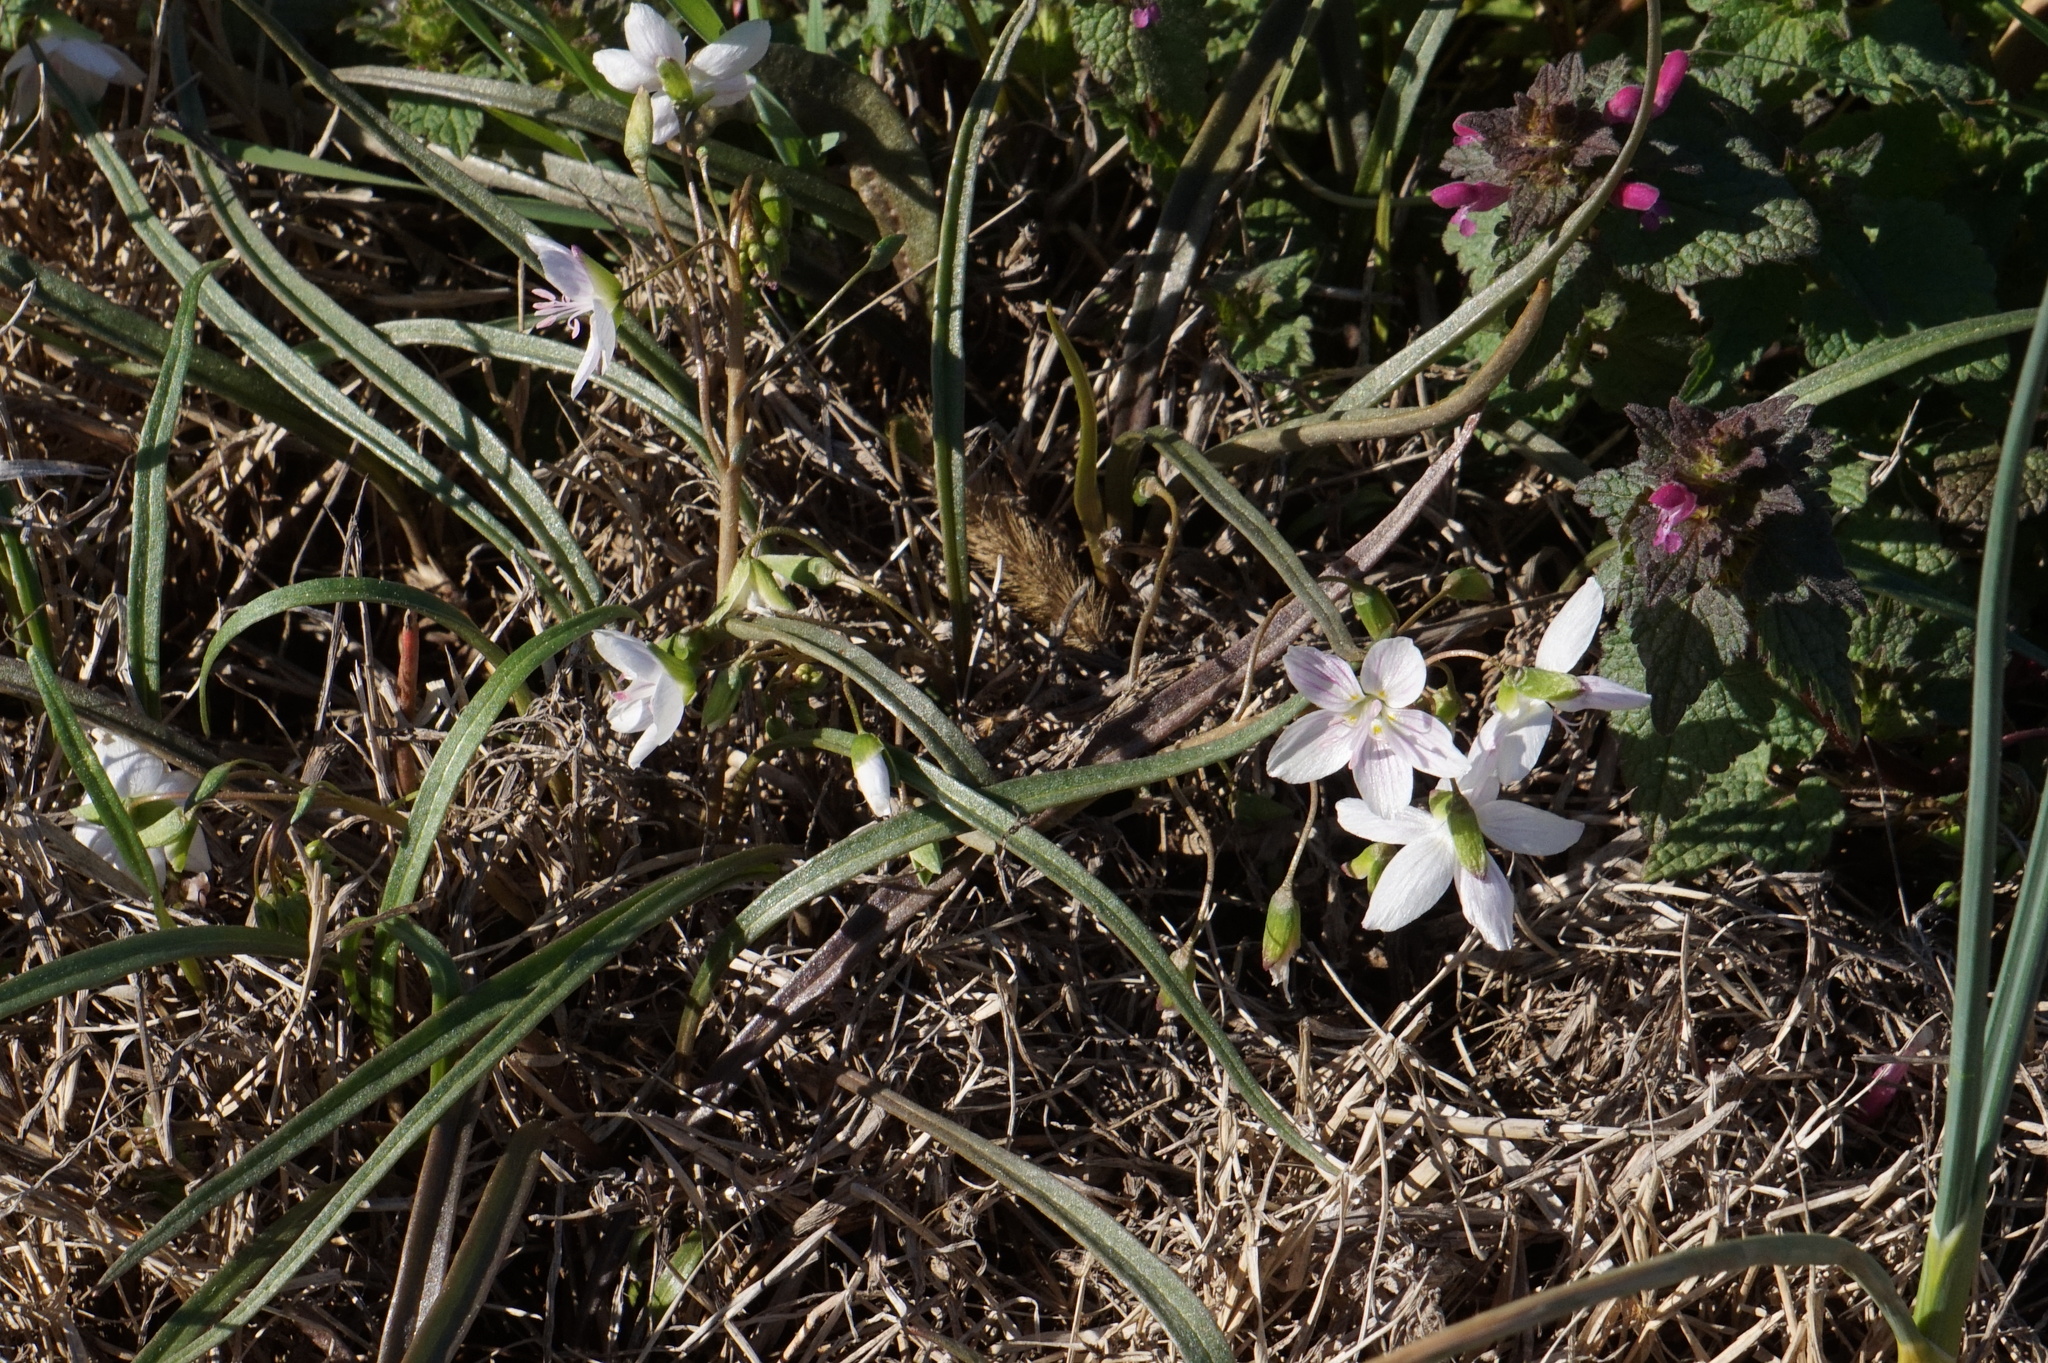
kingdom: Plantae
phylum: Tracheophyta
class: Magnoliopsida
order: Caryophyllales
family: Montiaceae
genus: Claytonia
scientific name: Claytonia virginica
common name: Virginia springbeauty
